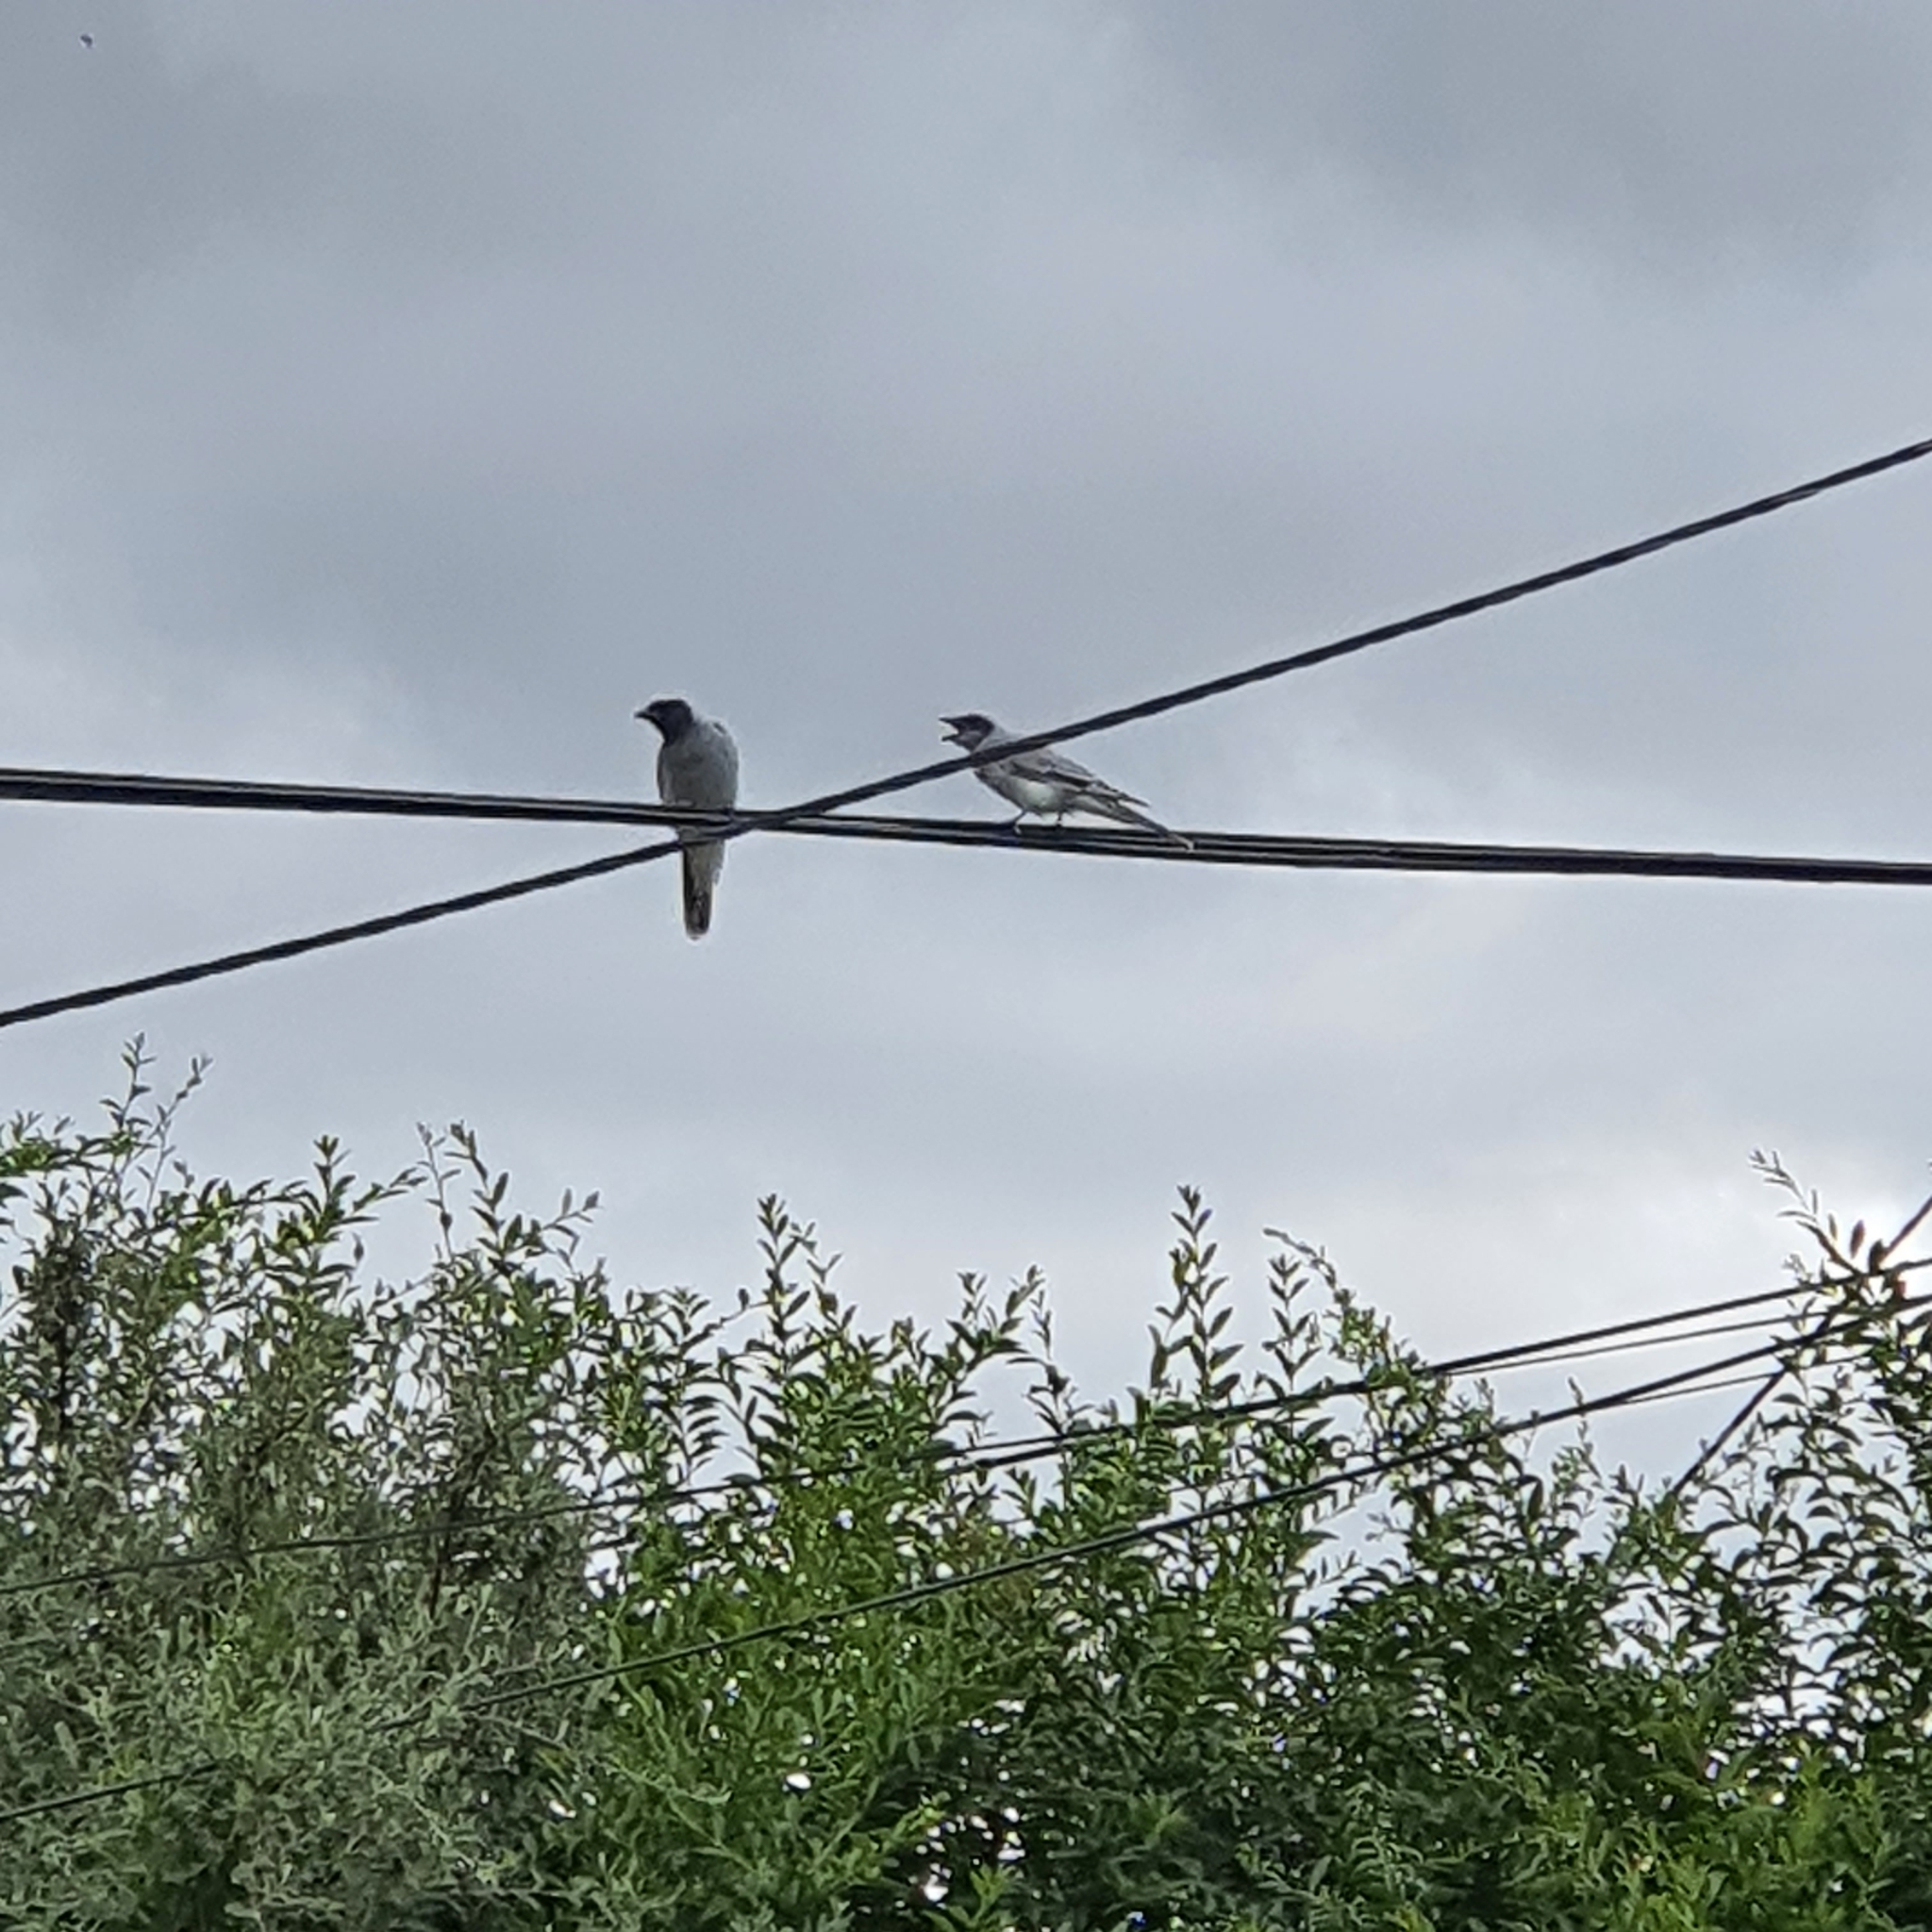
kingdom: Animalia
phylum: Chordata
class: Aves
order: Passeriformes
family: Campephagidae
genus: Coracina
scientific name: Coracina novaehollandiae
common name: Black-faced cuckooshrike
